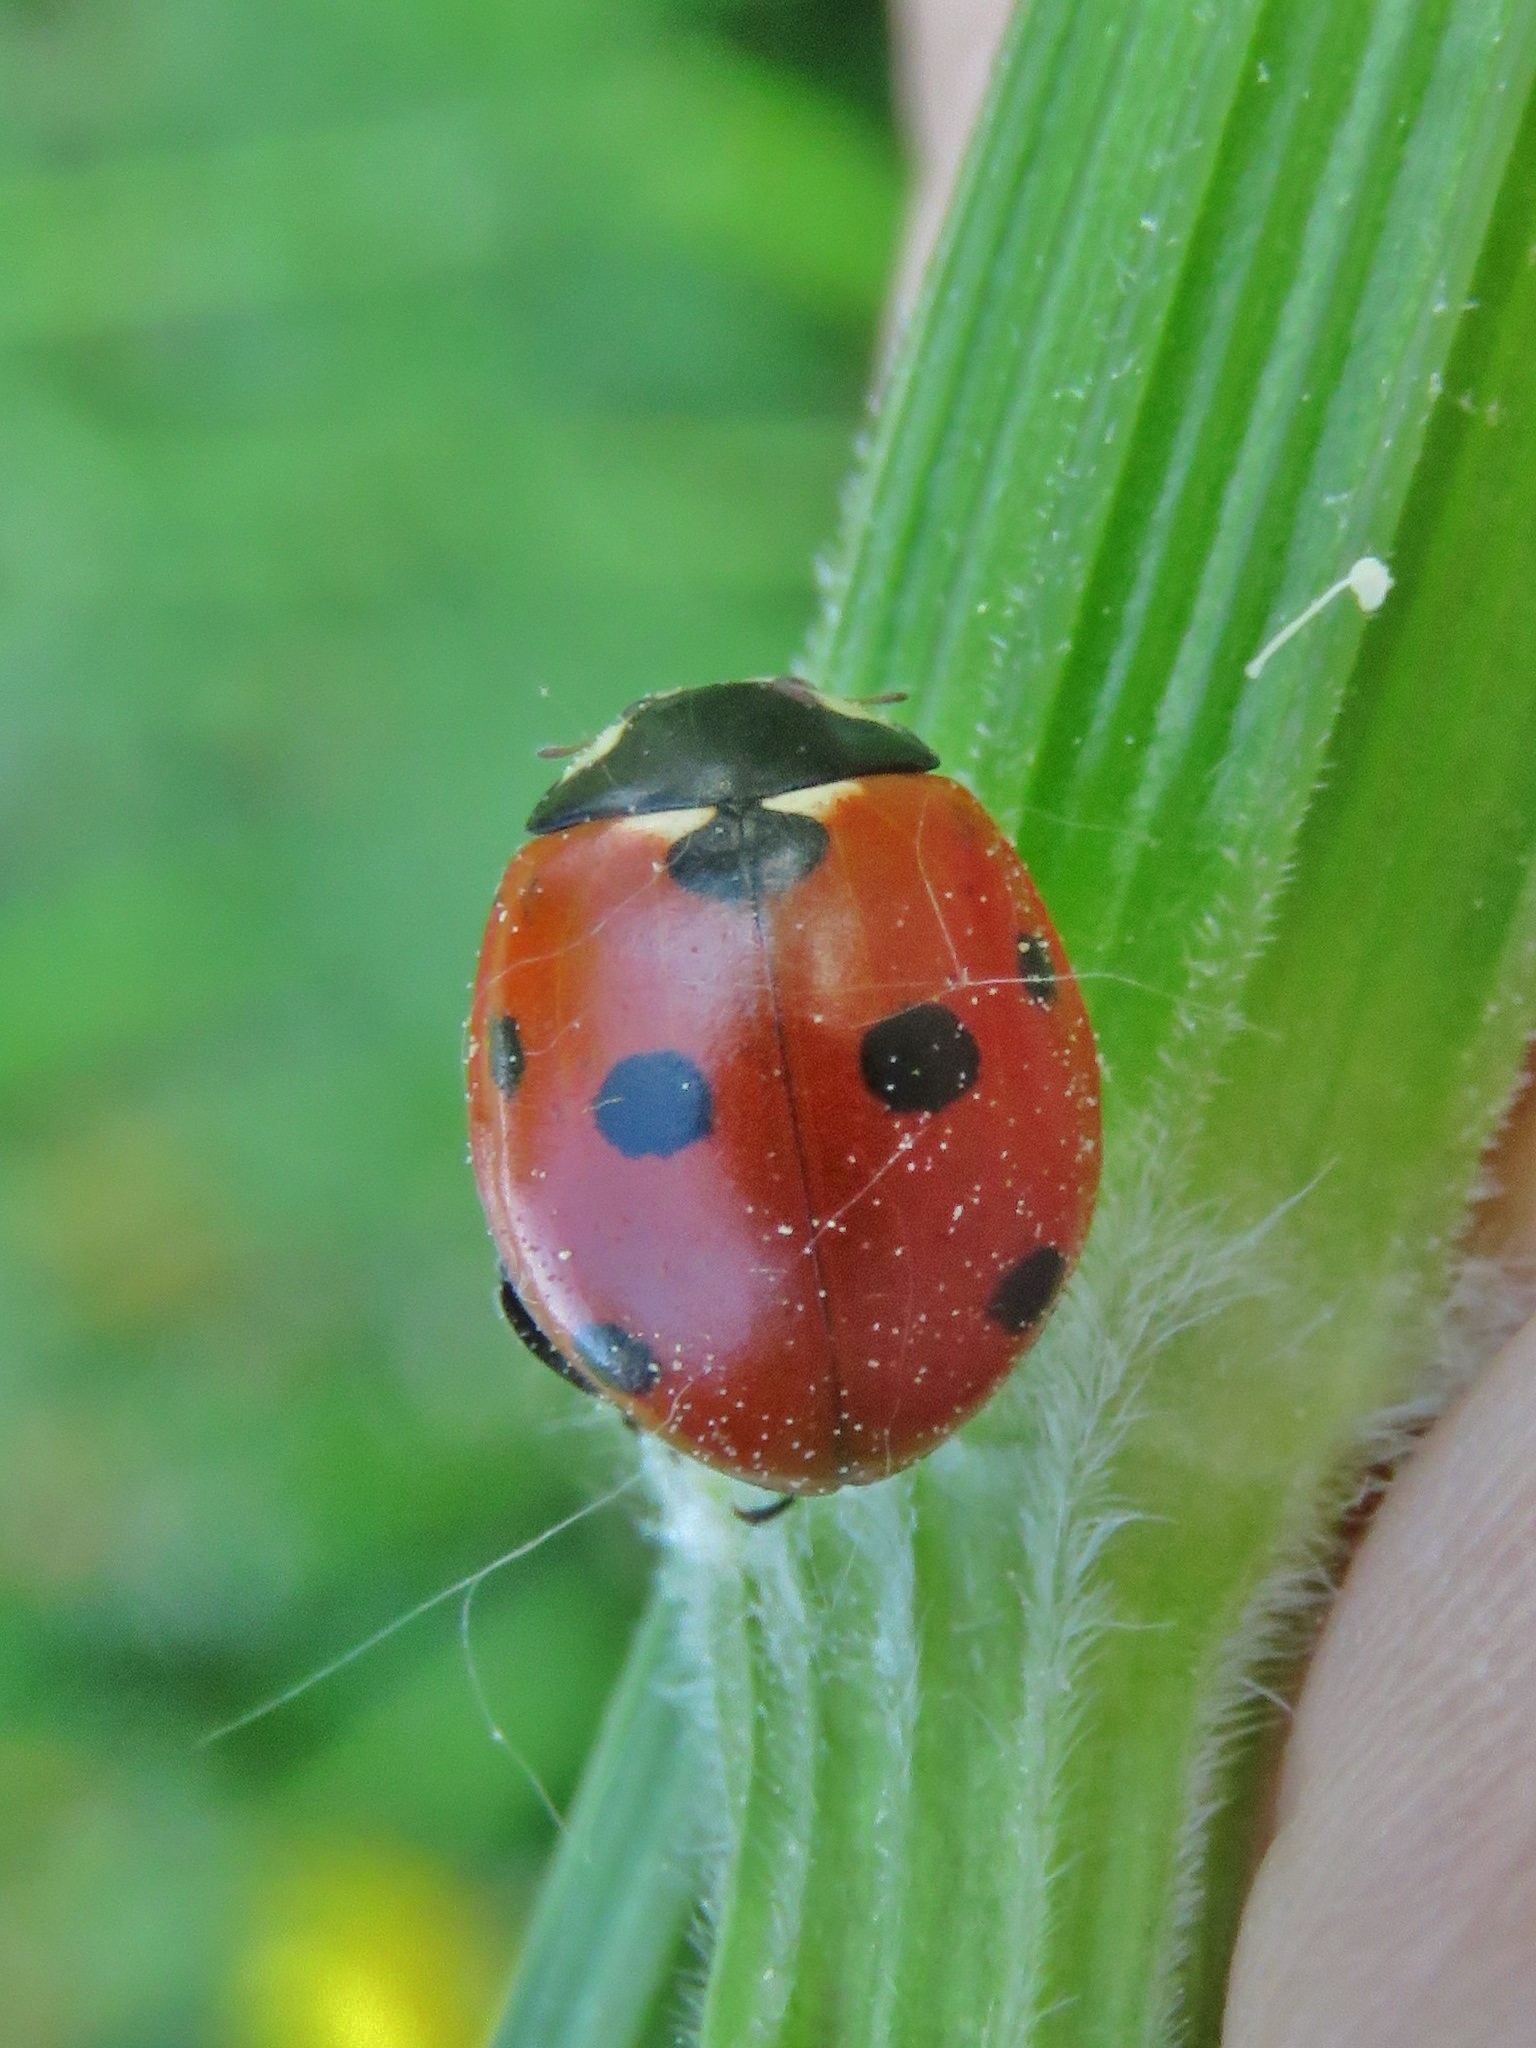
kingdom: Animalia
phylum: Arthropoda
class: Insecta
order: Coleoptera
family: Coccinellidae
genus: Coccinella
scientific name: Coccinella septempunctata
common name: Sevenspotted lady beetle
